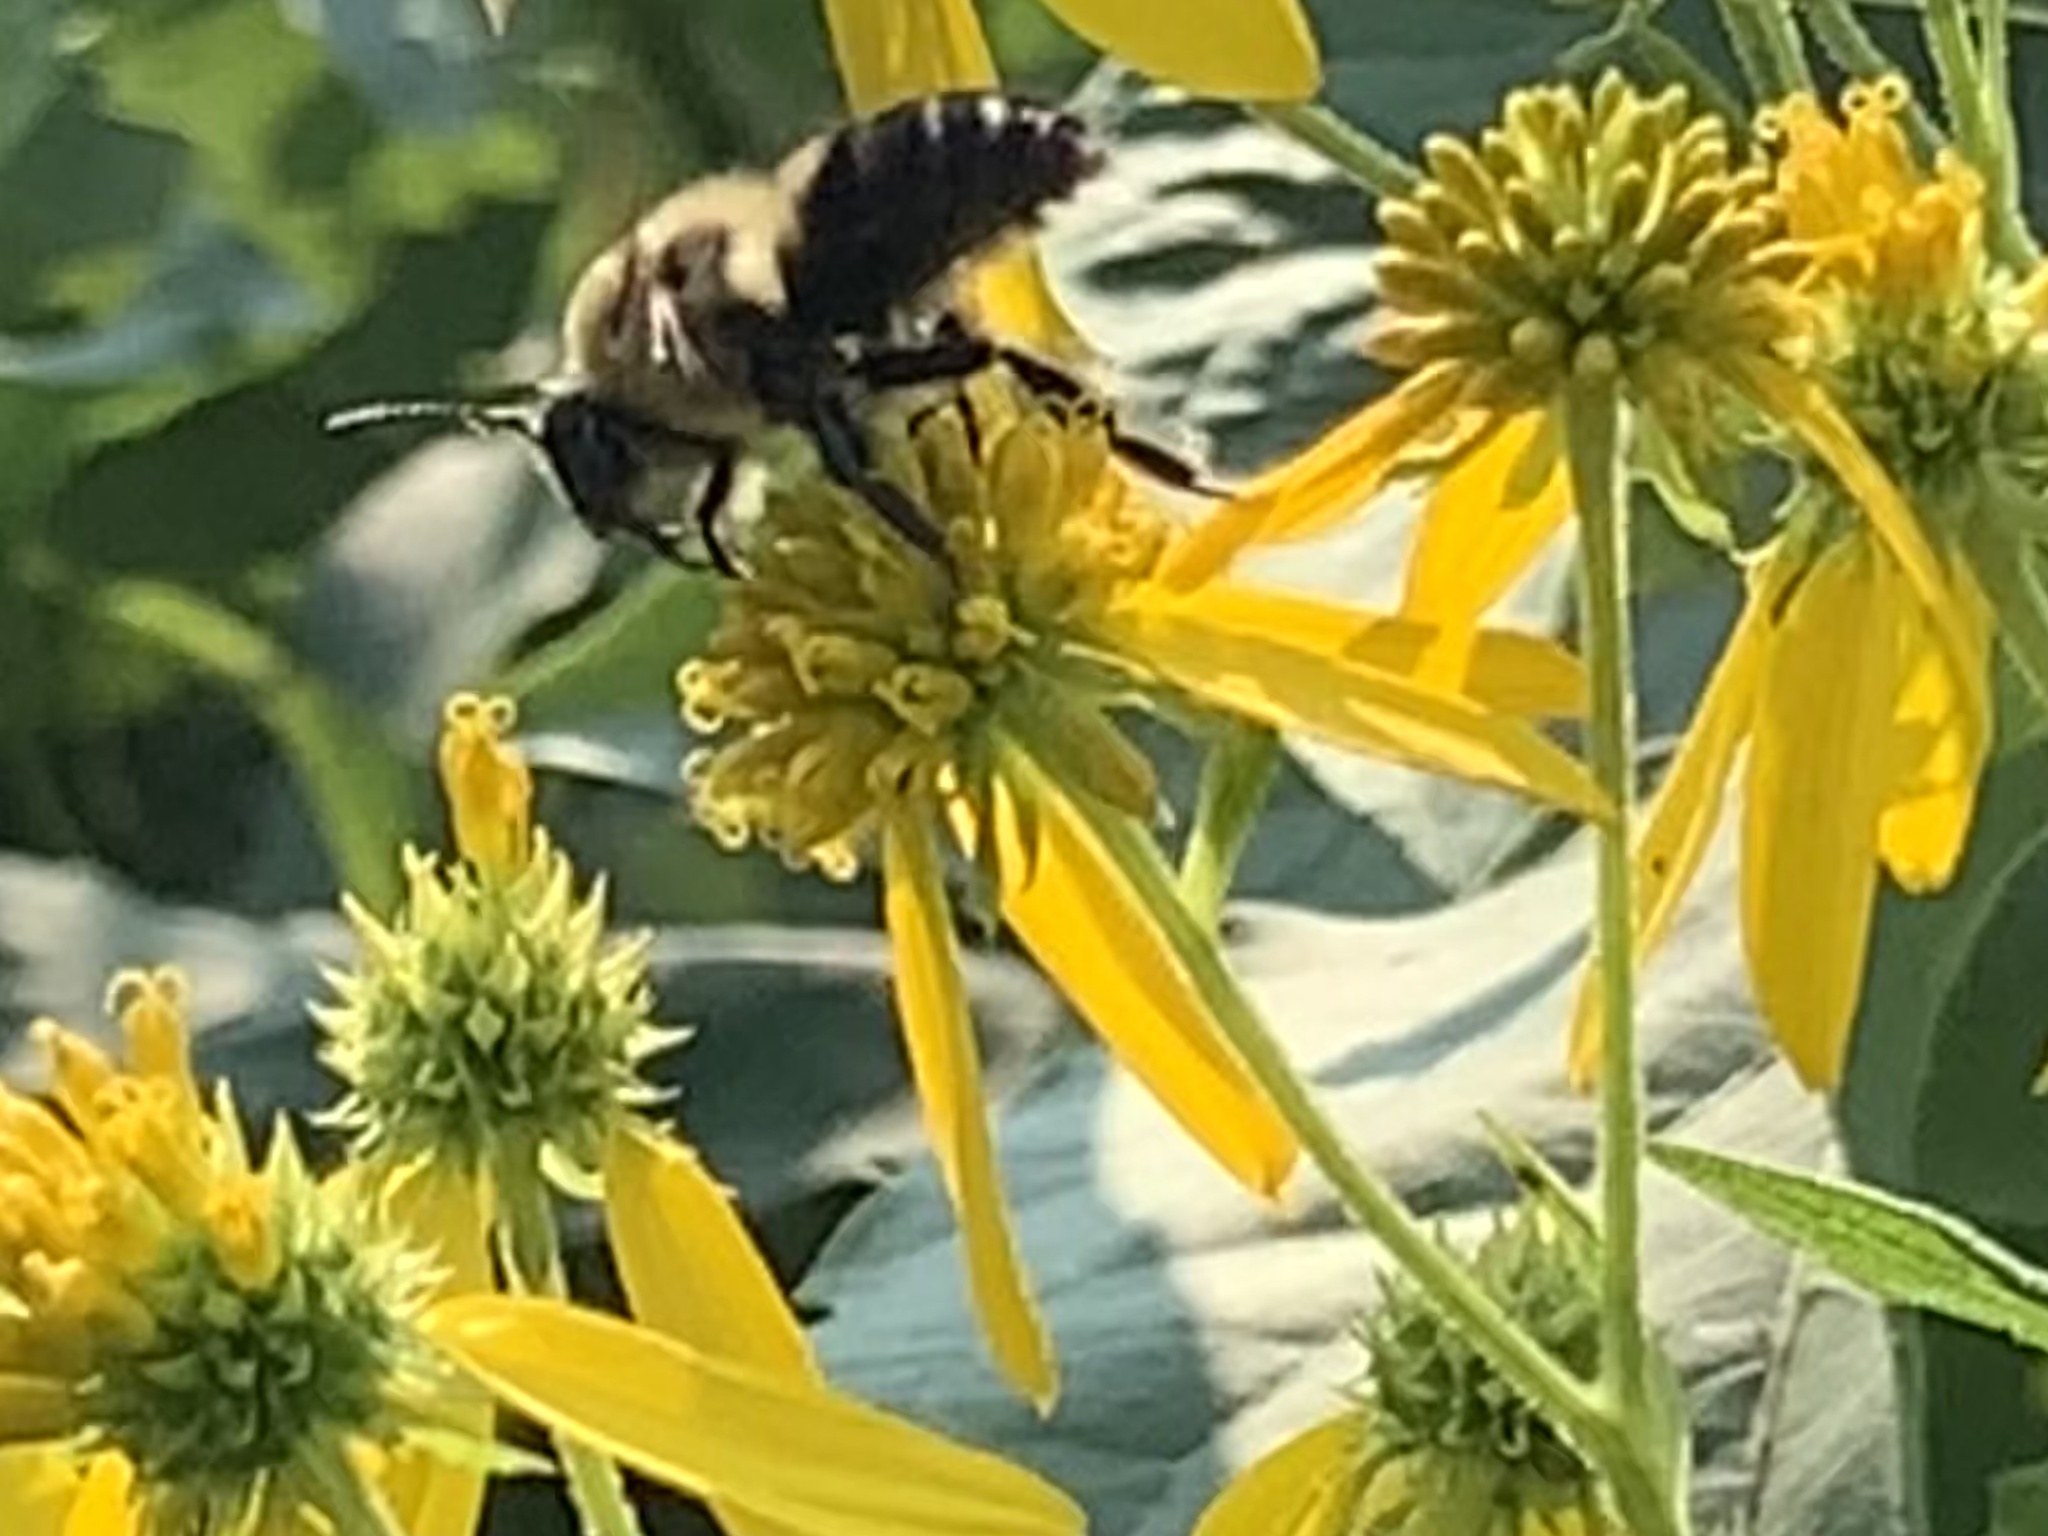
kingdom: Animalia
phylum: Arthropoda
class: Insecta
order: Hymenoptera
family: Apidae
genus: Bombus
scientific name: Bombus griseocollis
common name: Brown-belted bumble bee
